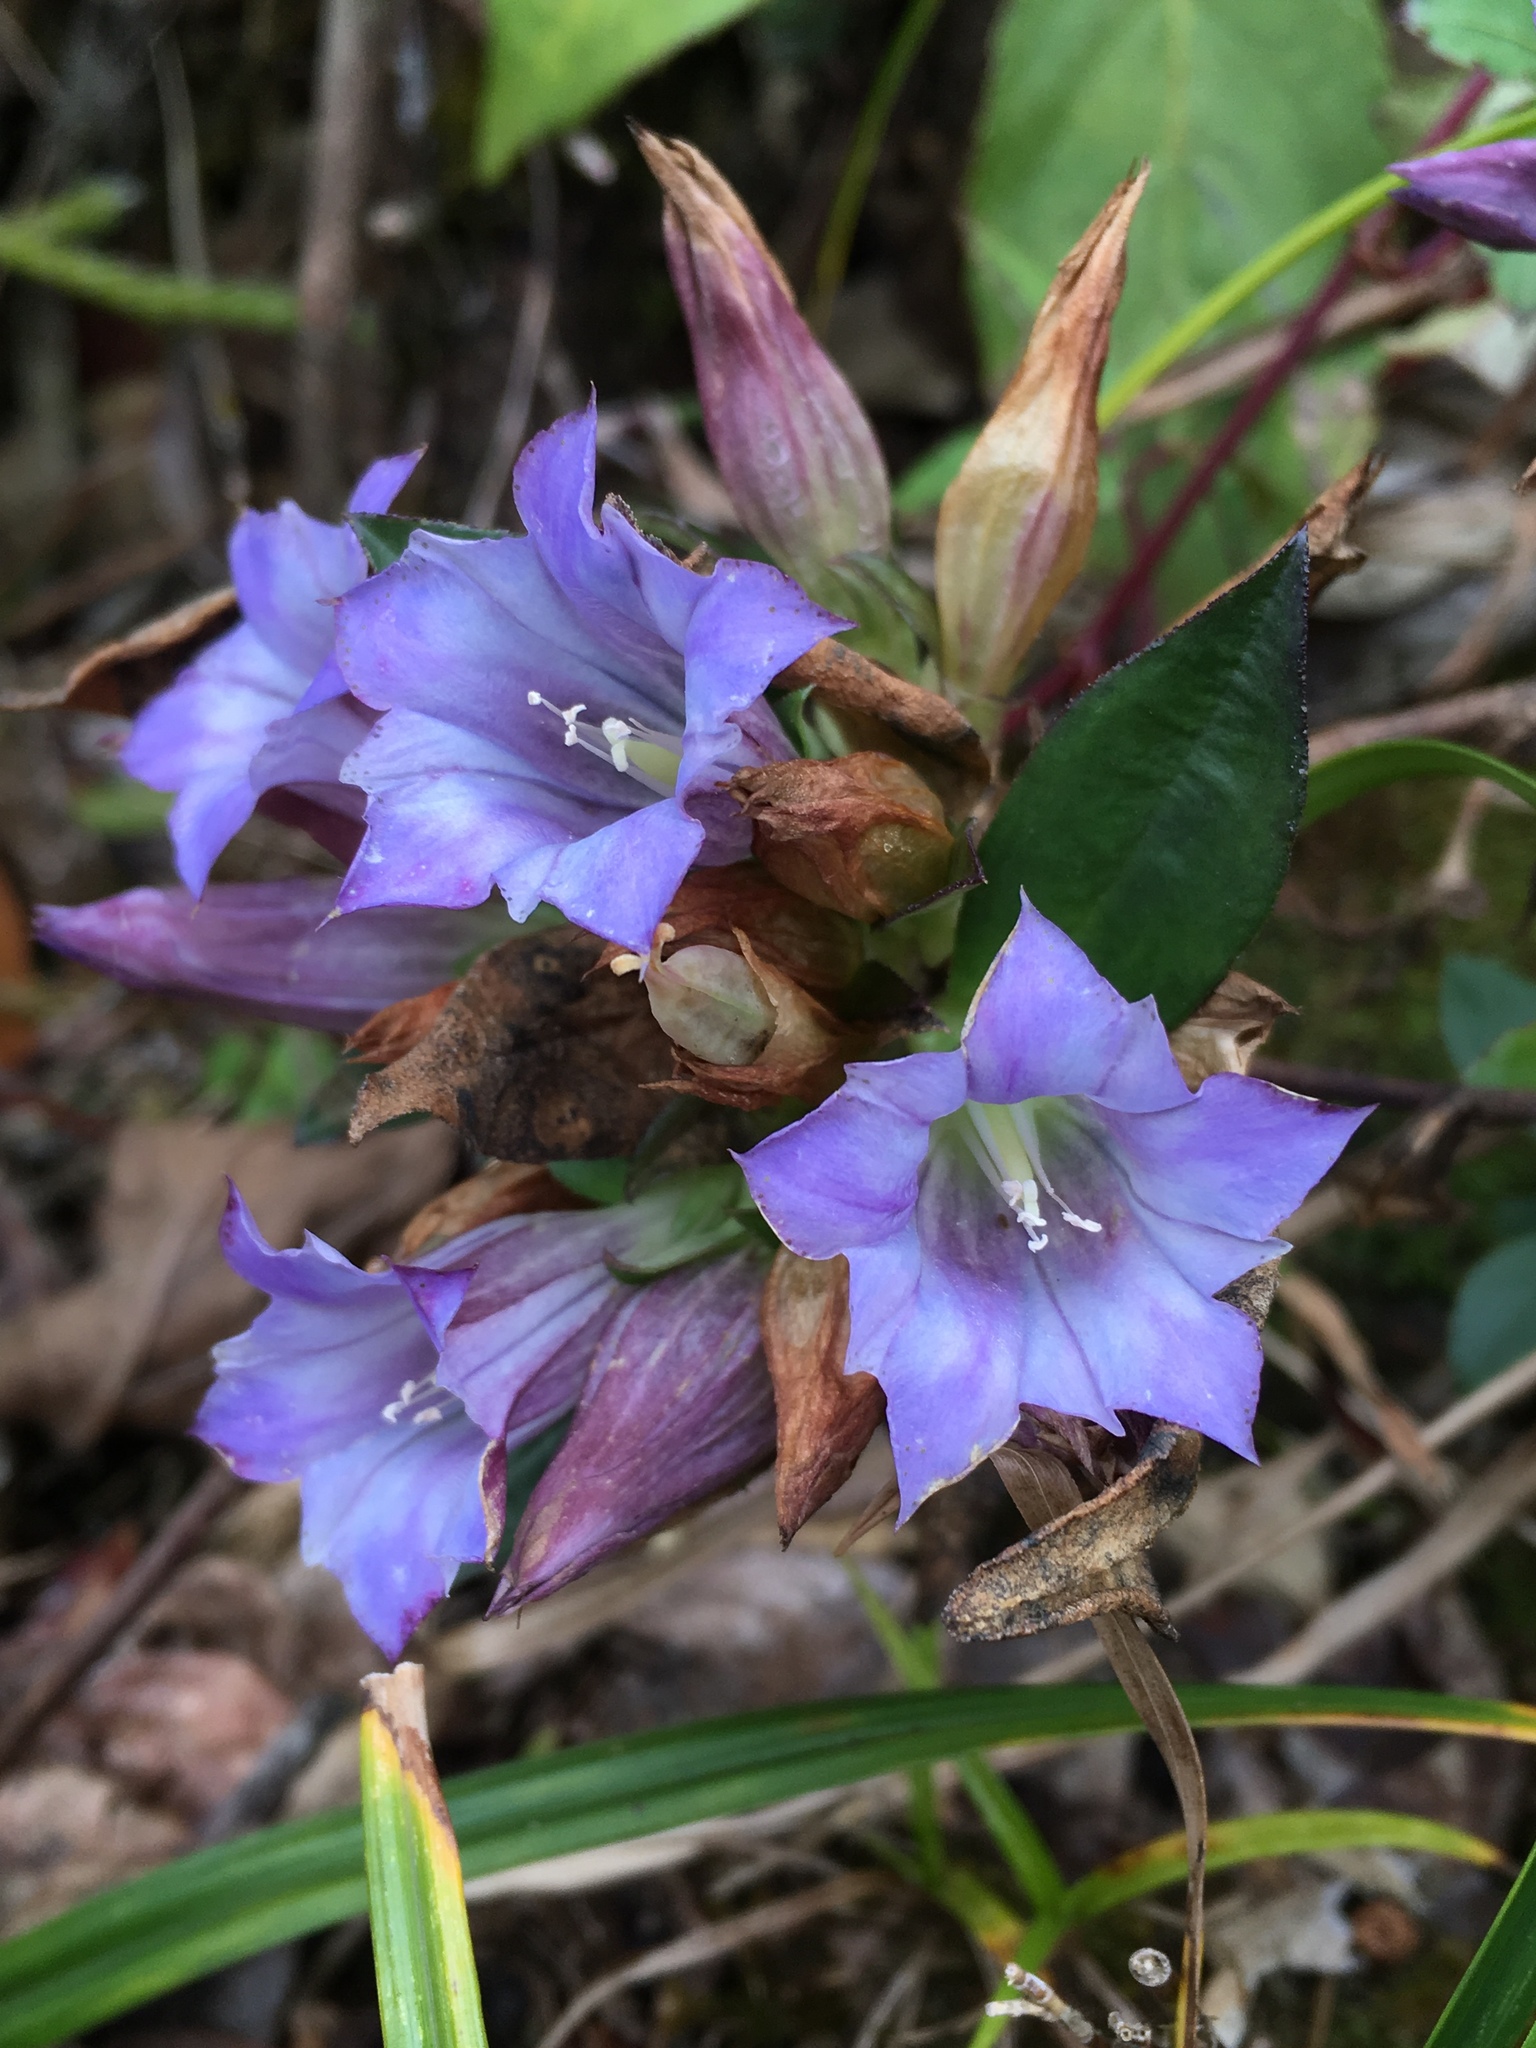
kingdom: Plantae
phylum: Tracheophyta
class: Magnoliopsida
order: Gentianales
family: Gentianaceae
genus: Gentiana
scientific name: Gentiana cephalantha
